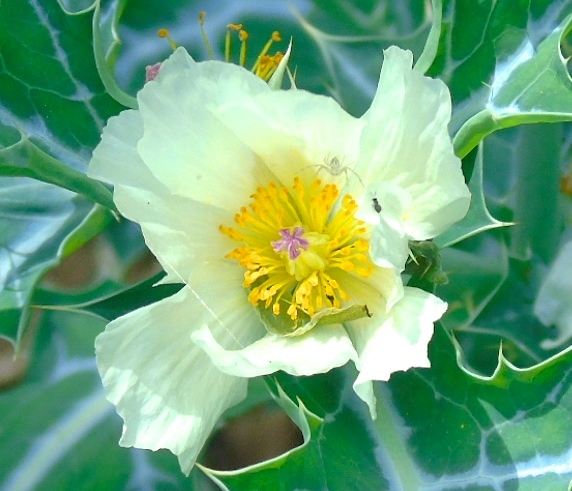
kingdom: Plantae
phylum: Tracheophyta
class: Magnoliopsida
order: Ranunculales
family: Papaveraceae
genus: Argemone
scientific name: Argemone ochroleuca
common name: White-flower mexican-poppy
